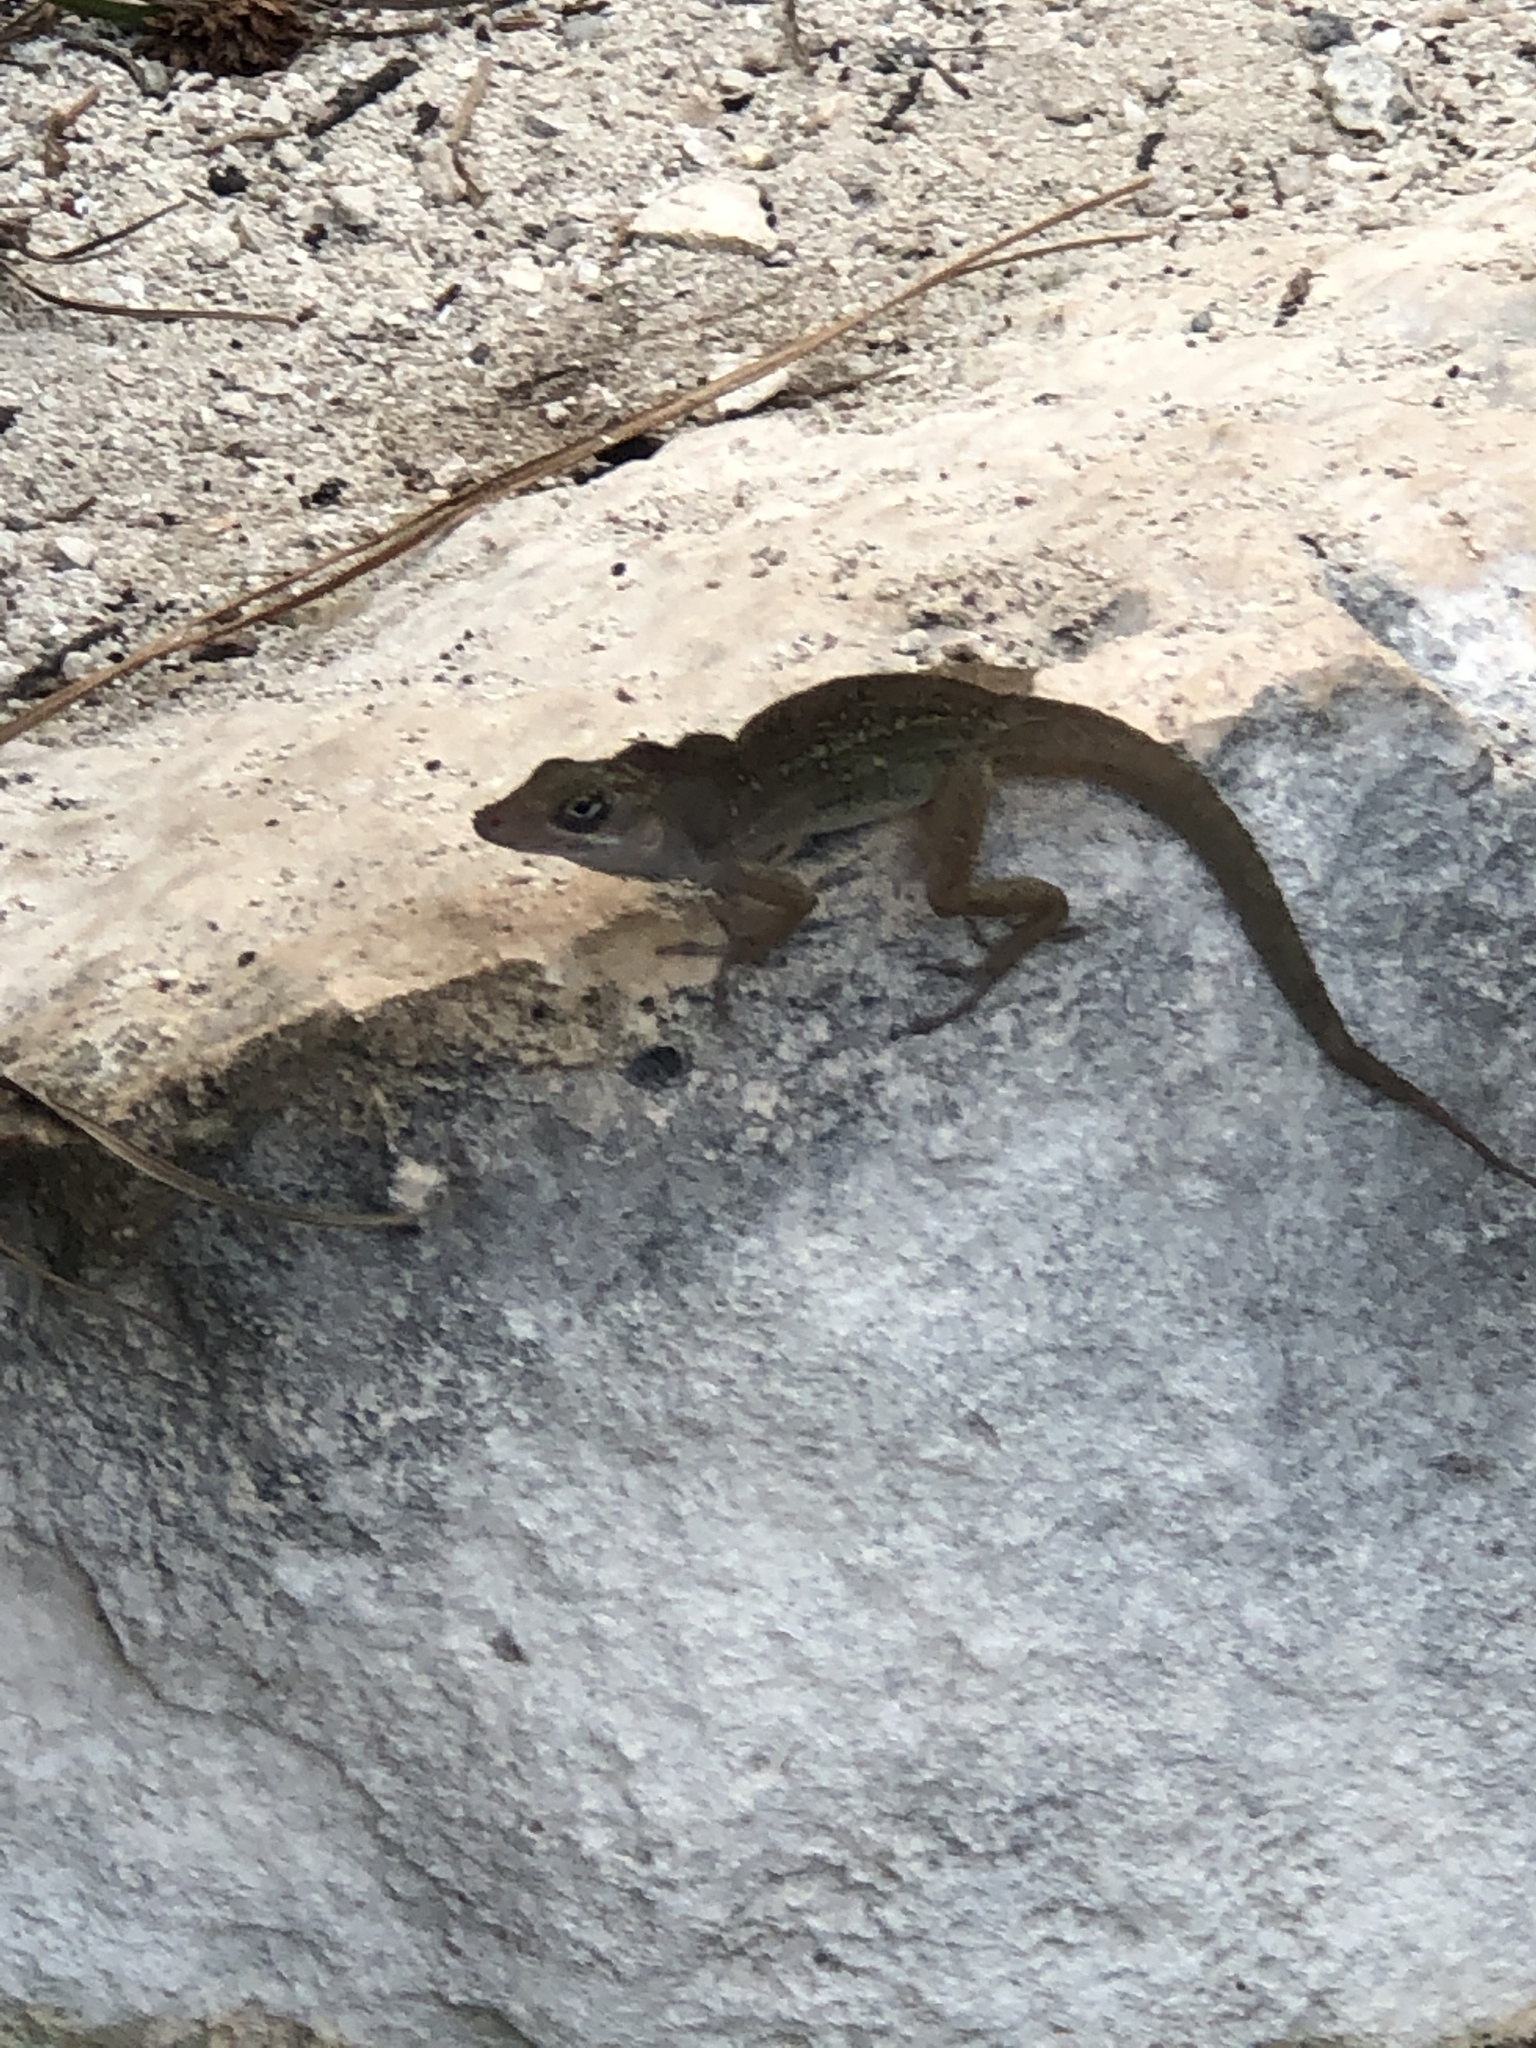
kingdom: Animalia
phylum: Chordata
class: Squamata
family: Dactyloidae
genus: Anolis
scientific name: Anolis sagrei
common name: Brown anole
